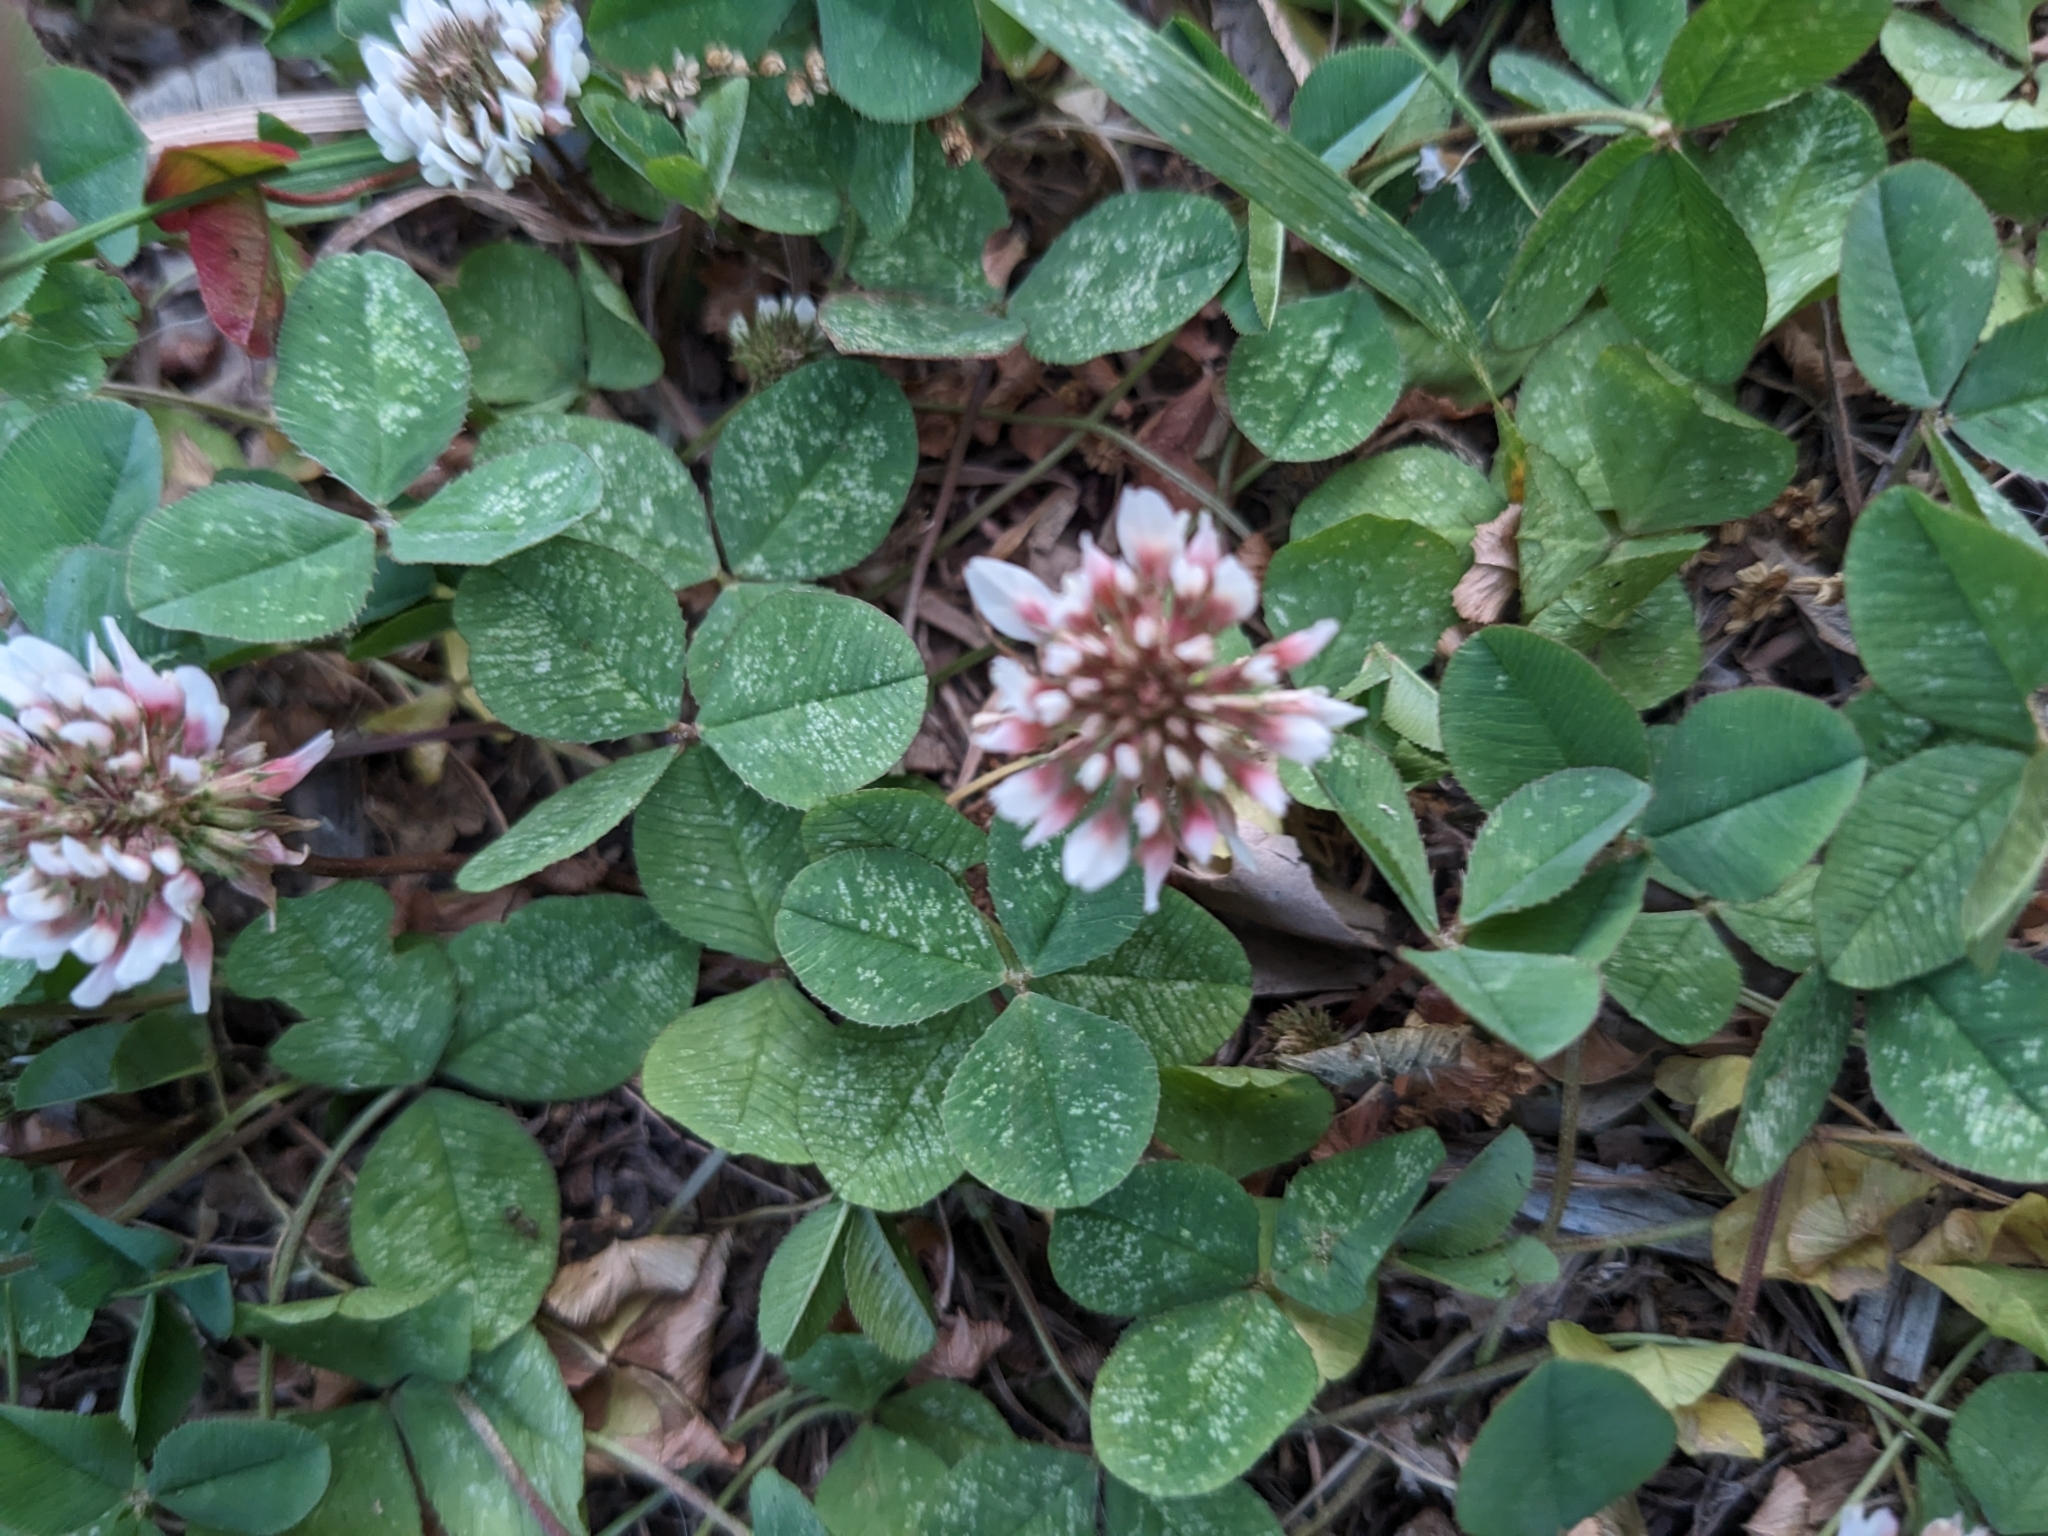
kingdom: Plantae
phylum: Tracheophyta
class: Magnoliopsida
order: Fabales
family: Fabaceae
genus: Trifolium
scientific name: Trifolium repens
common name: White clover
